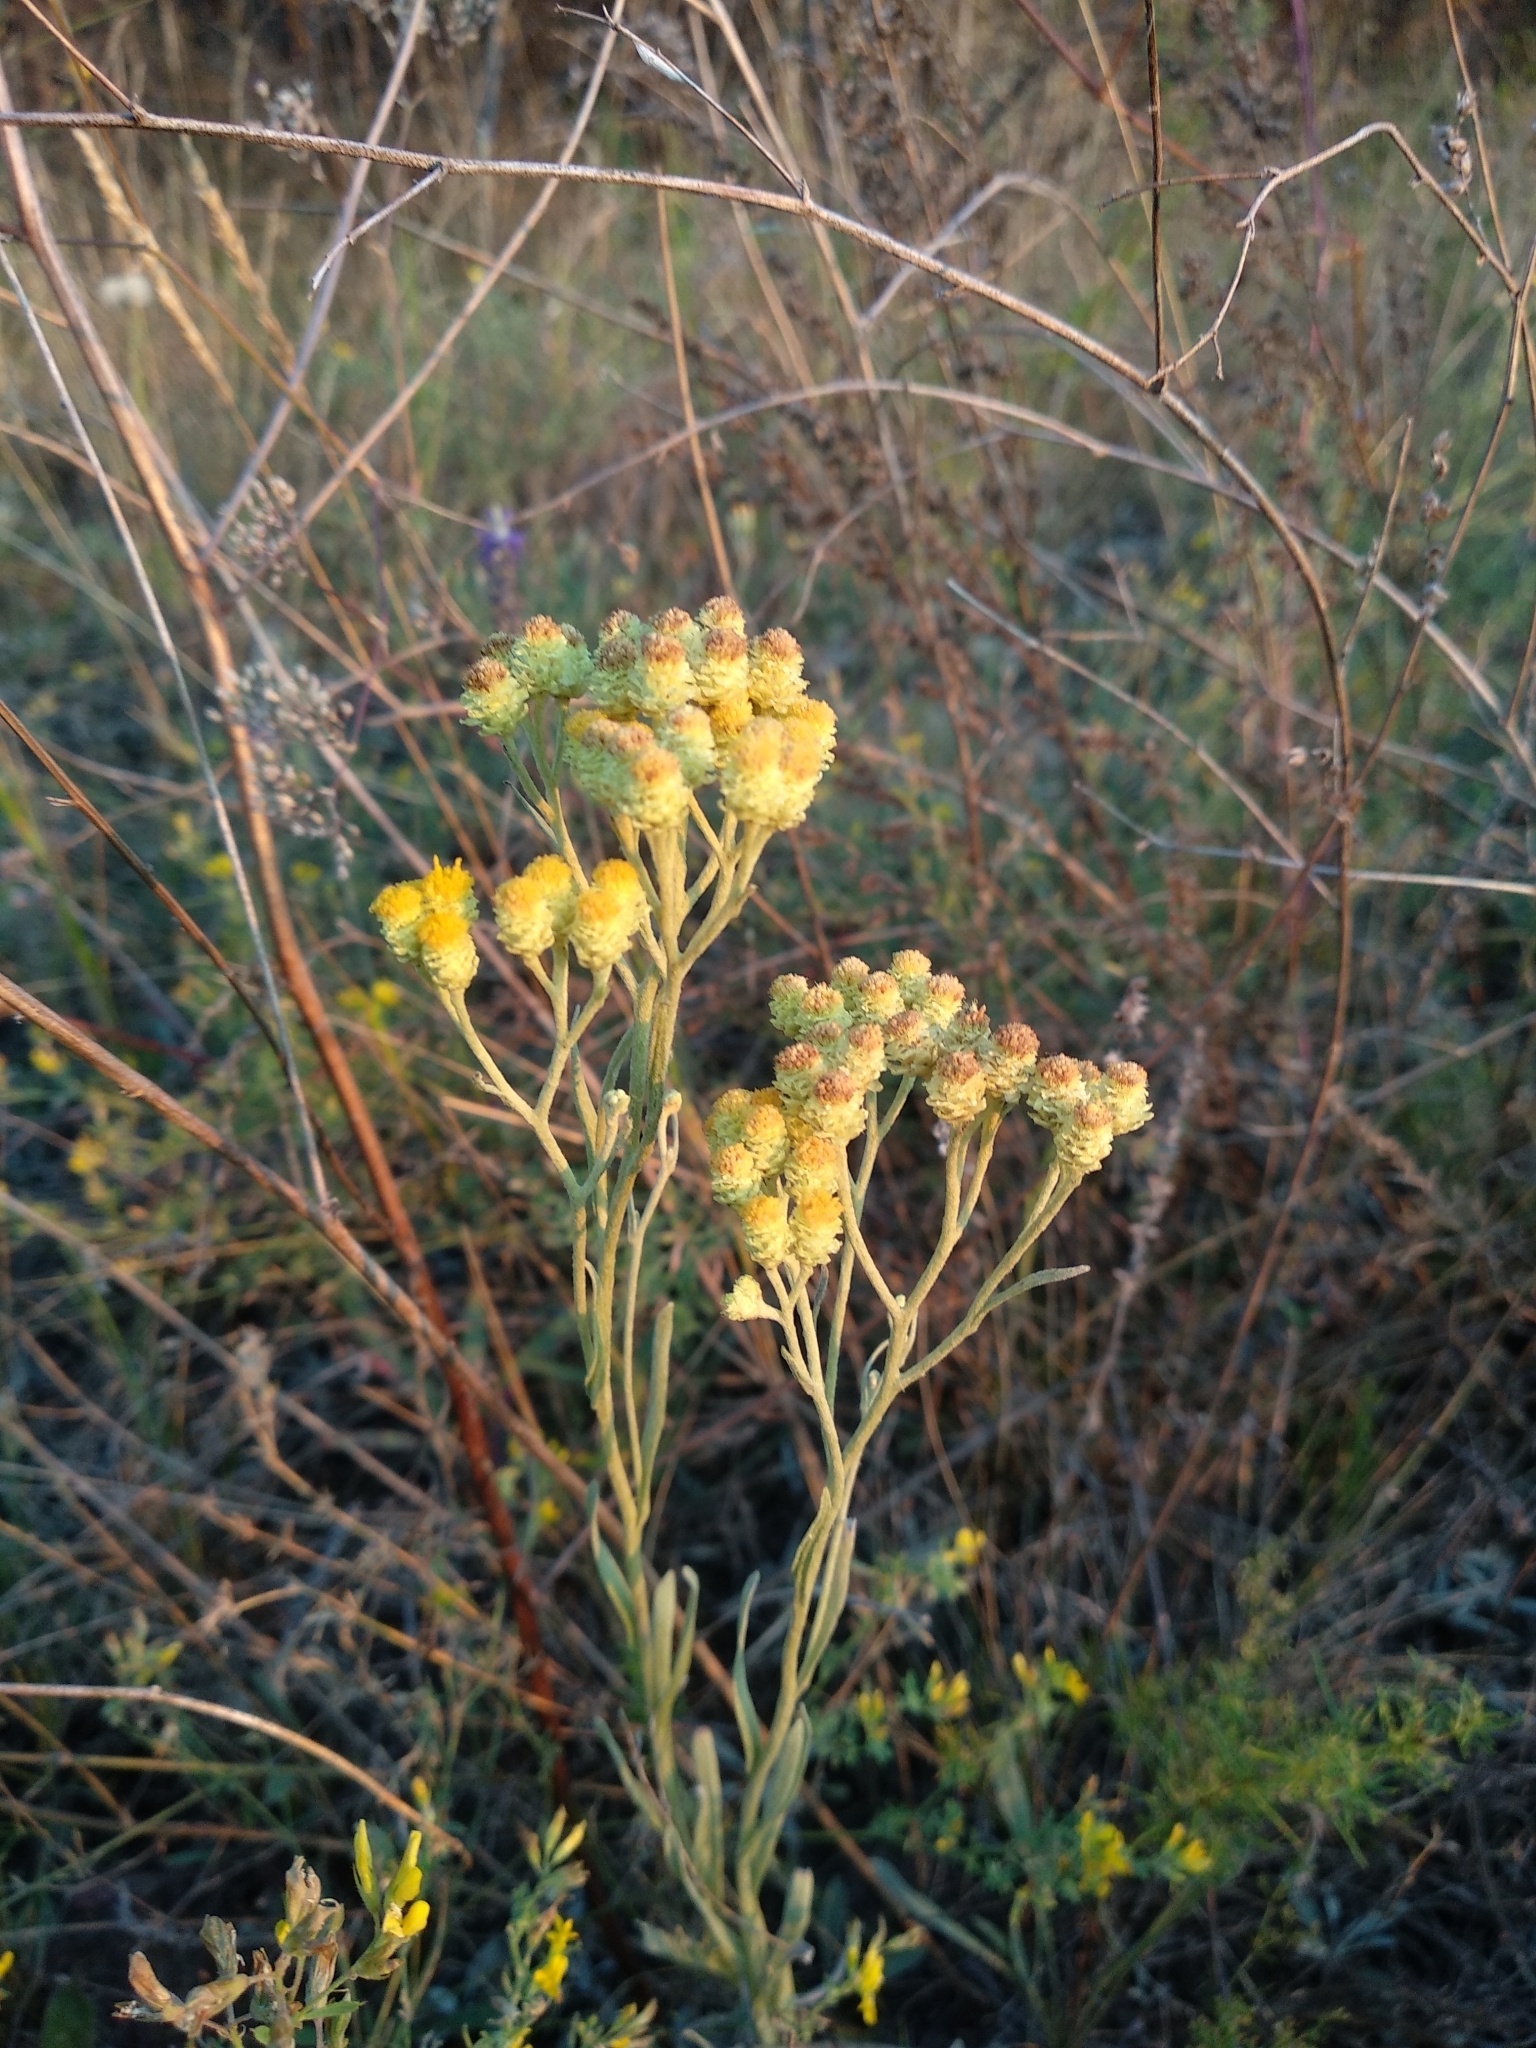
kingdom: Plantae
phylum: Tracheophyta
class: Magnoliopsida
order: Asterales
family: Asteraceae
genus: Helichrysum
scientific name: Helichrysum arenarium
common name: Strawflower
